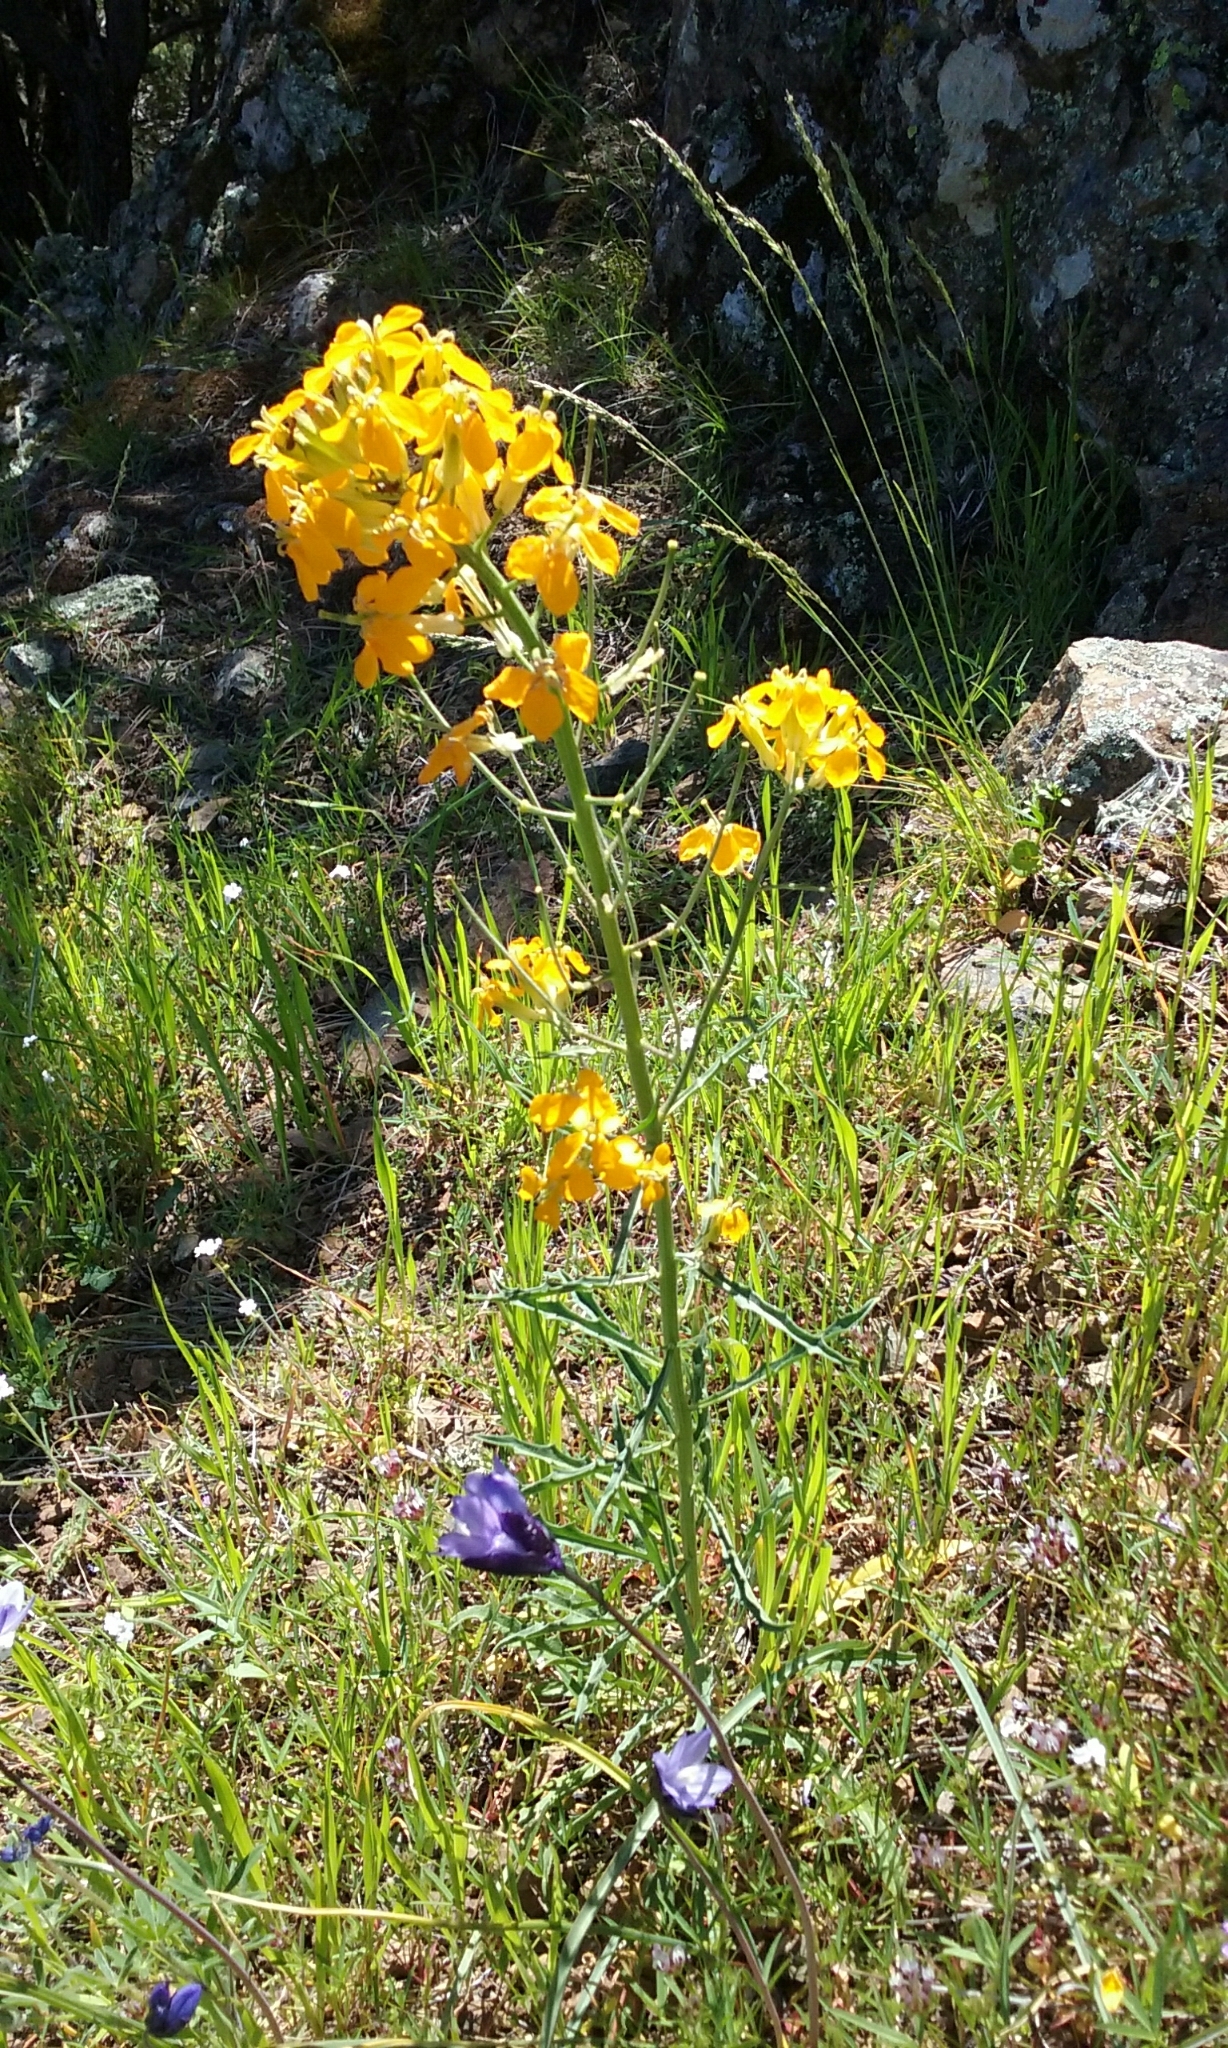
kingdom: Plantae
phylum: Tracheophyta
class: Magnoliopsida
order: Brassicales
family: Brassicaceae
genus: Erysimum
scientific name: Erysimum capitatum
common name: Western wallflower
